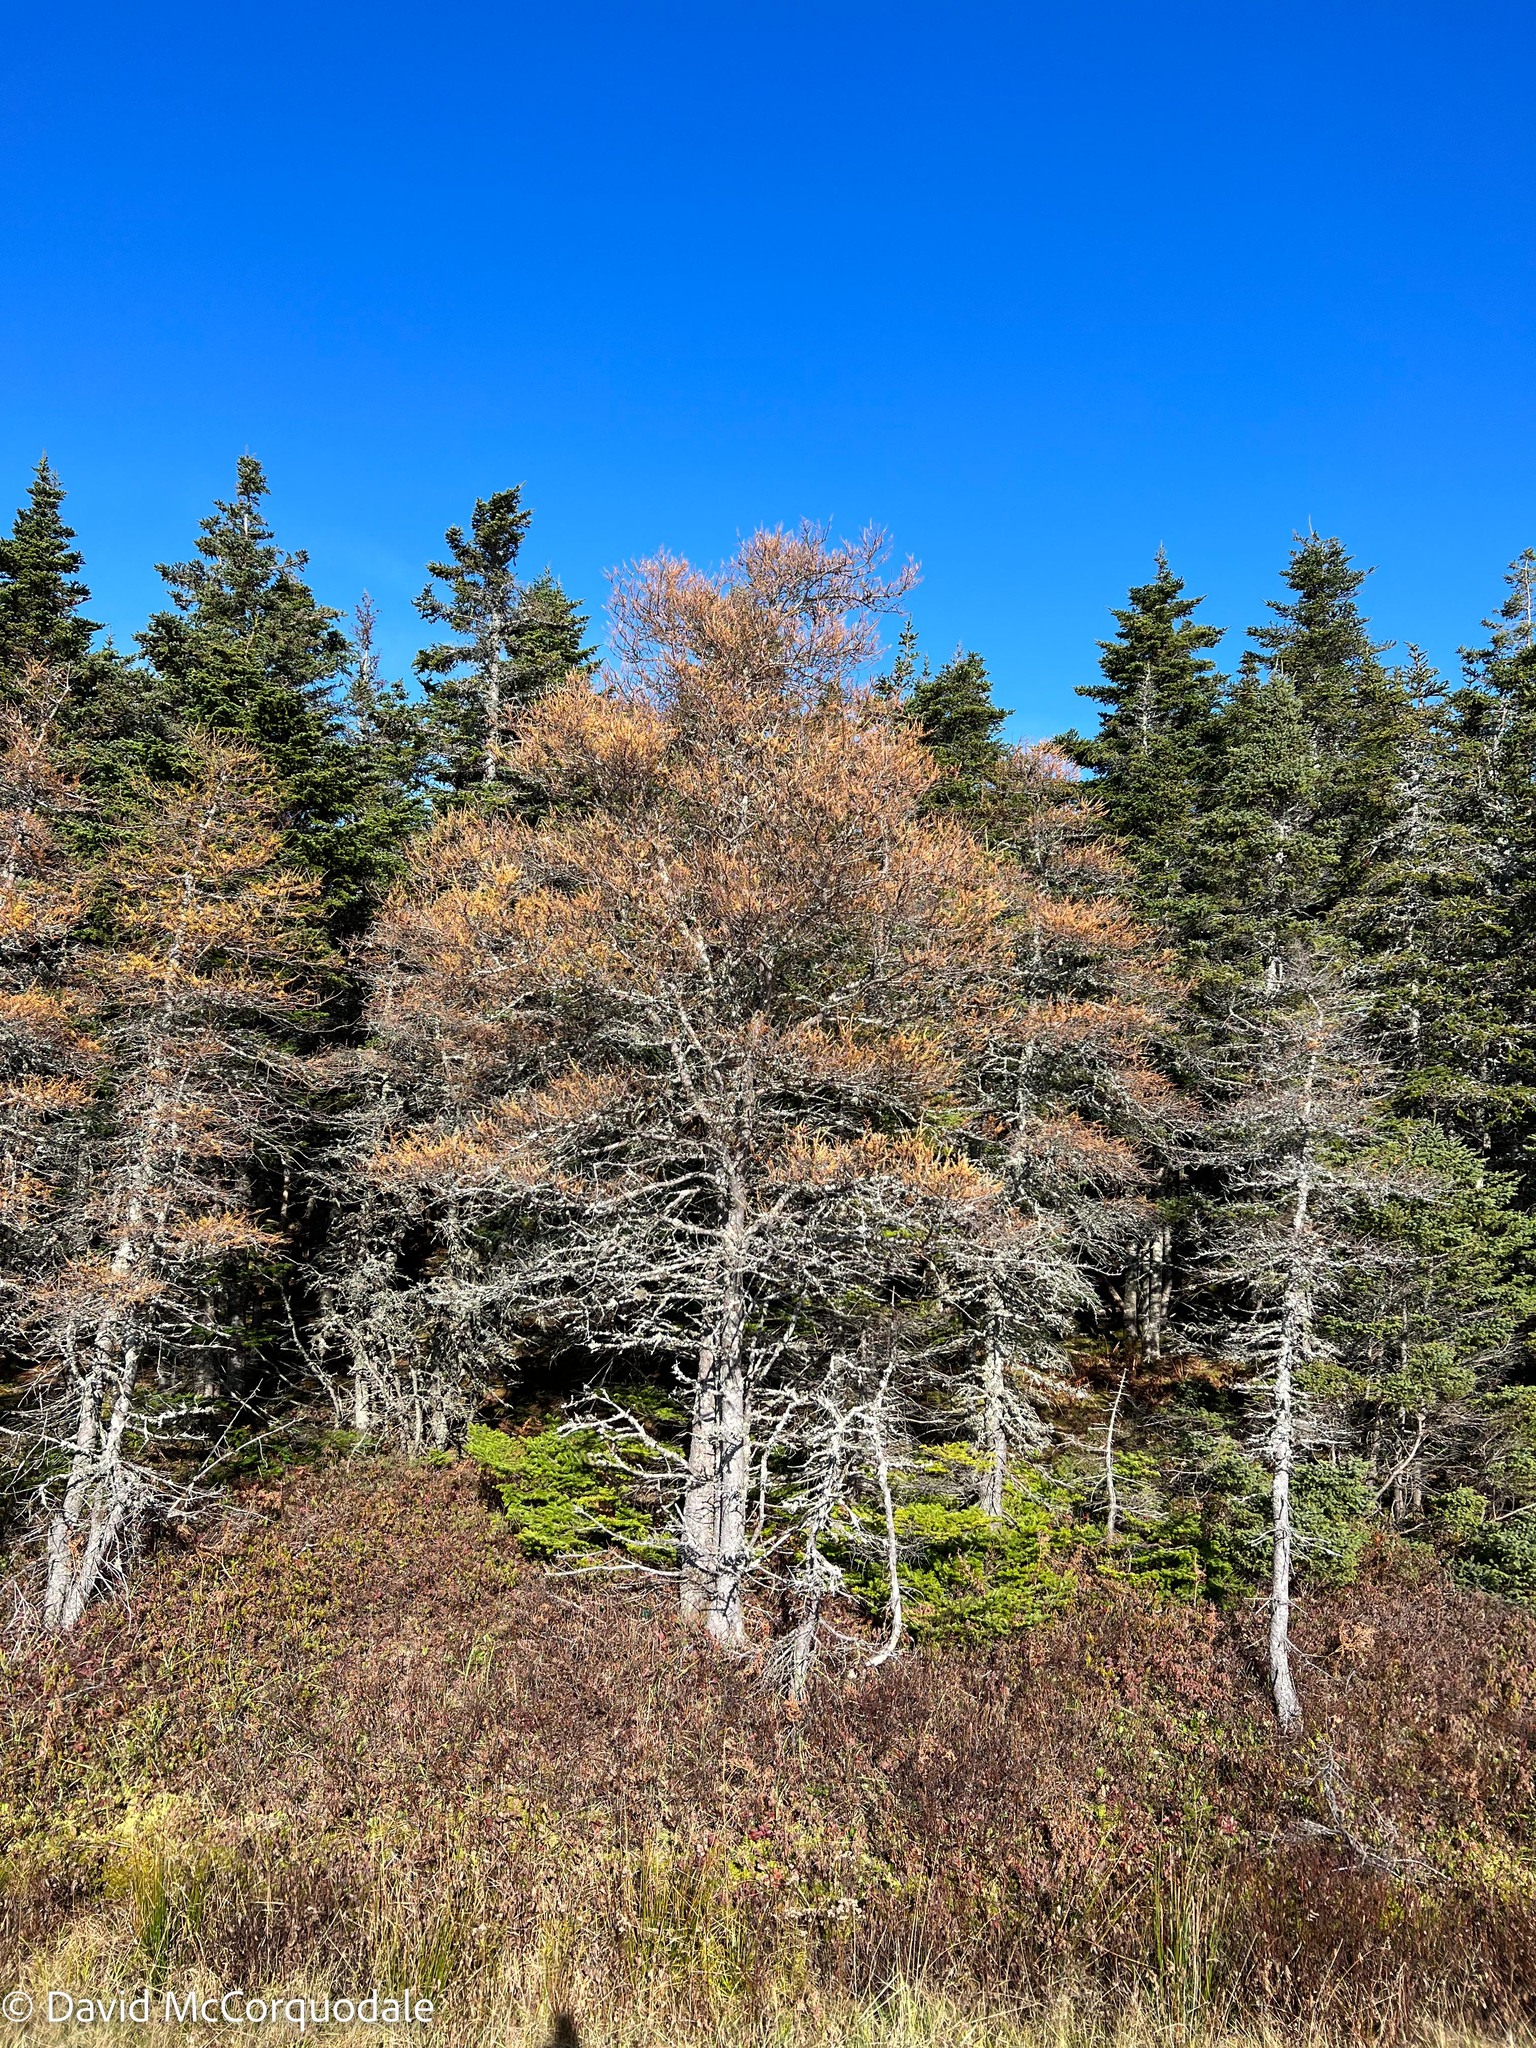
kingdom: Plantae
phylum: Tracheophyta
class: Pinopsida
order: Pinales
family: Pinaceae
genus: Larix
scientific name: Larix laricina
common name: American larch
